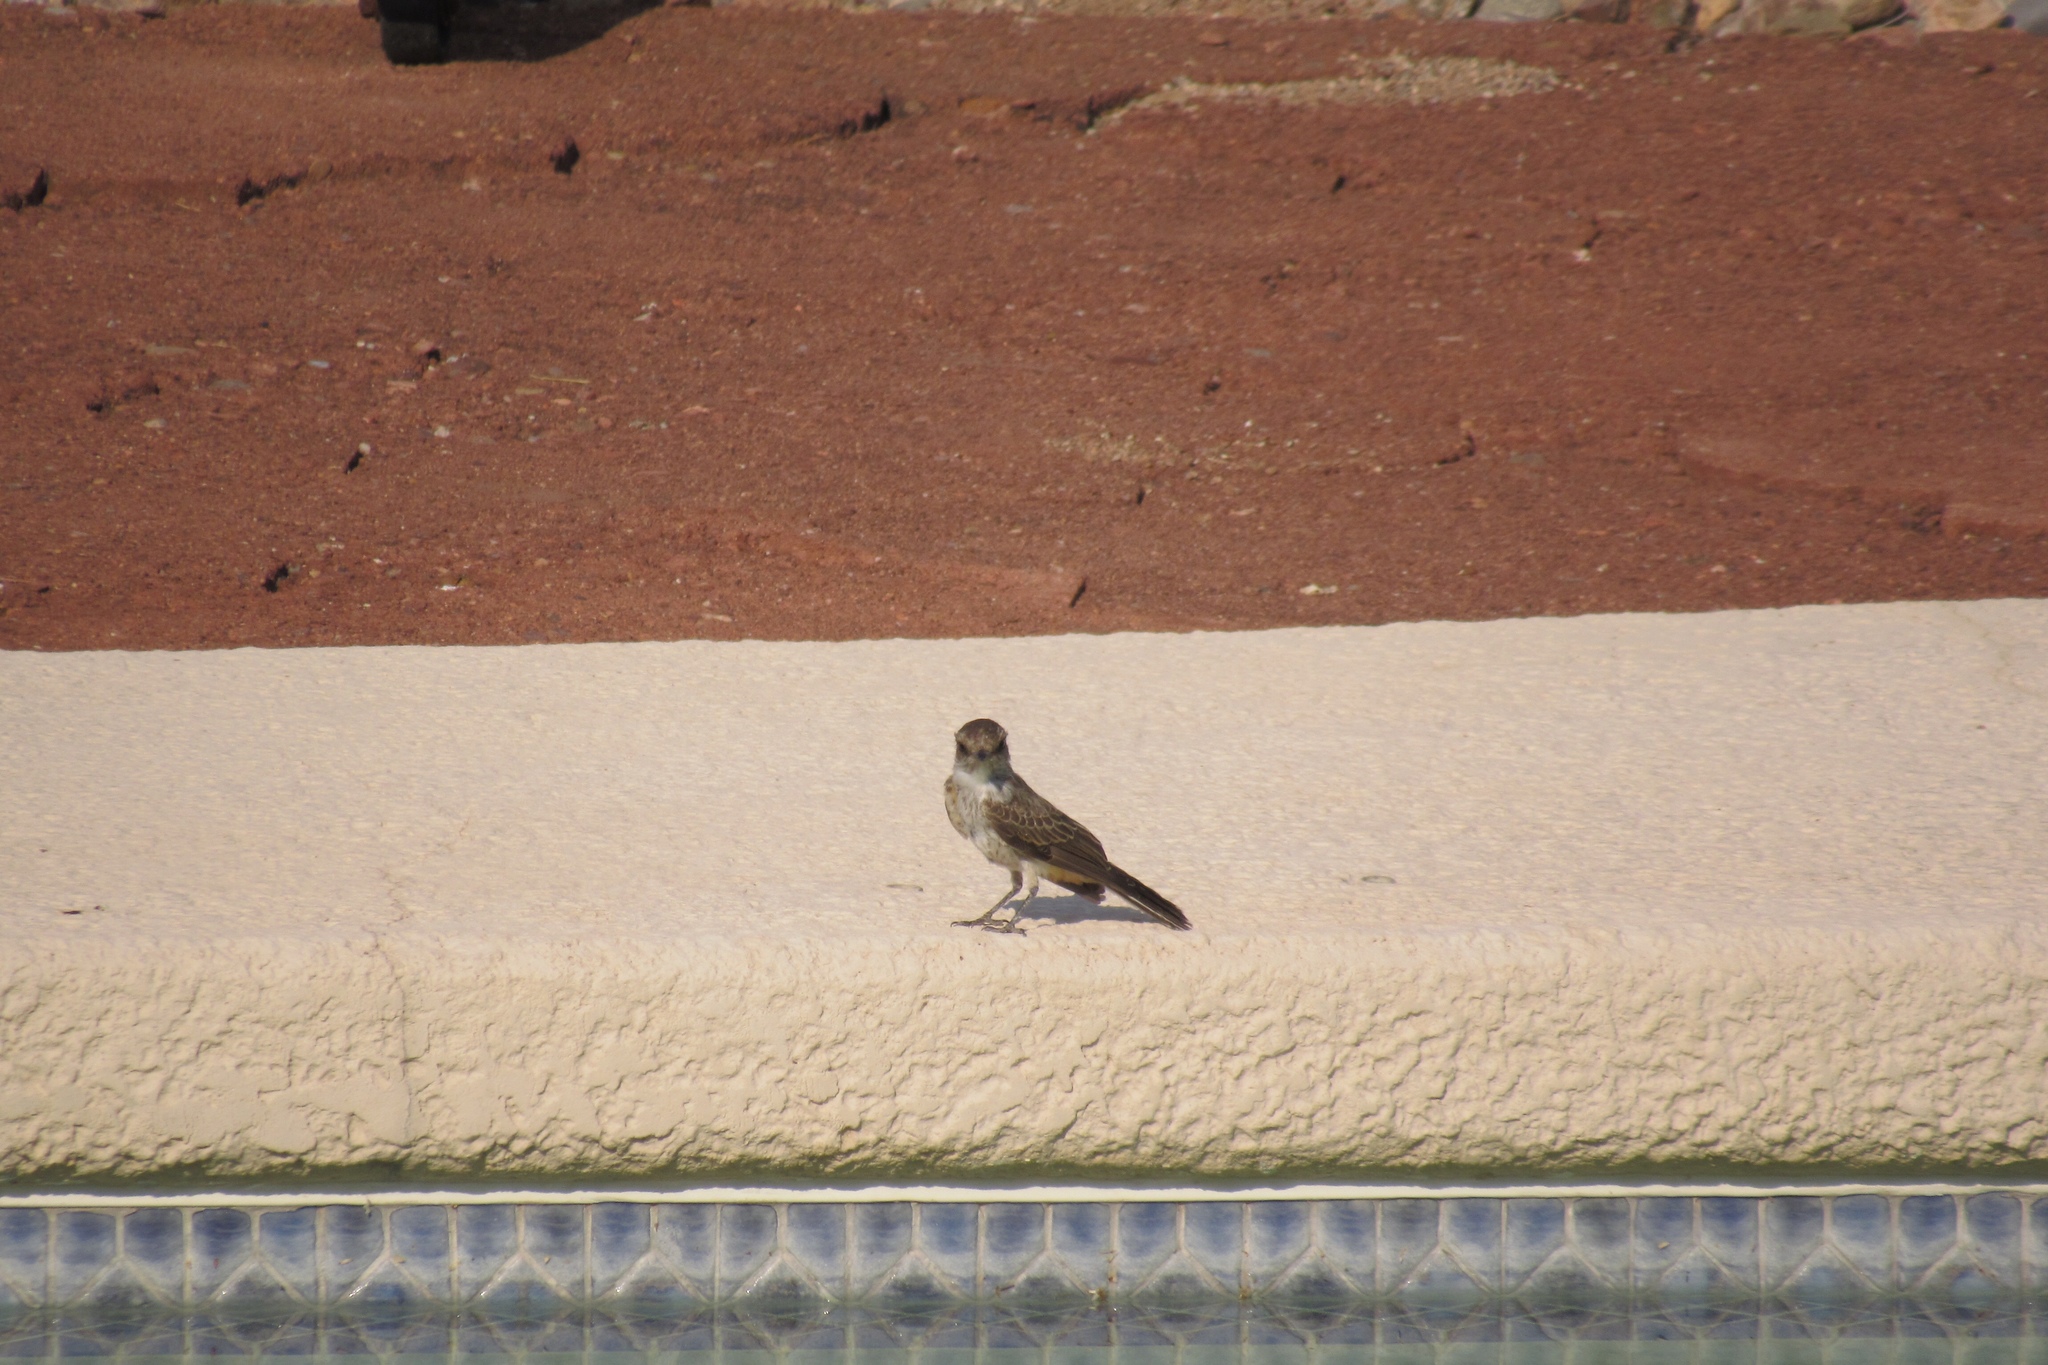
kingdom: Animalia
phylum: Chordata
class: Aves
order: Passeriformes
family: Tyrannidae
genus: Pyrocephalus
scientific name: Pyrocephalus rubinus
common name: Vermilion flycatcher
